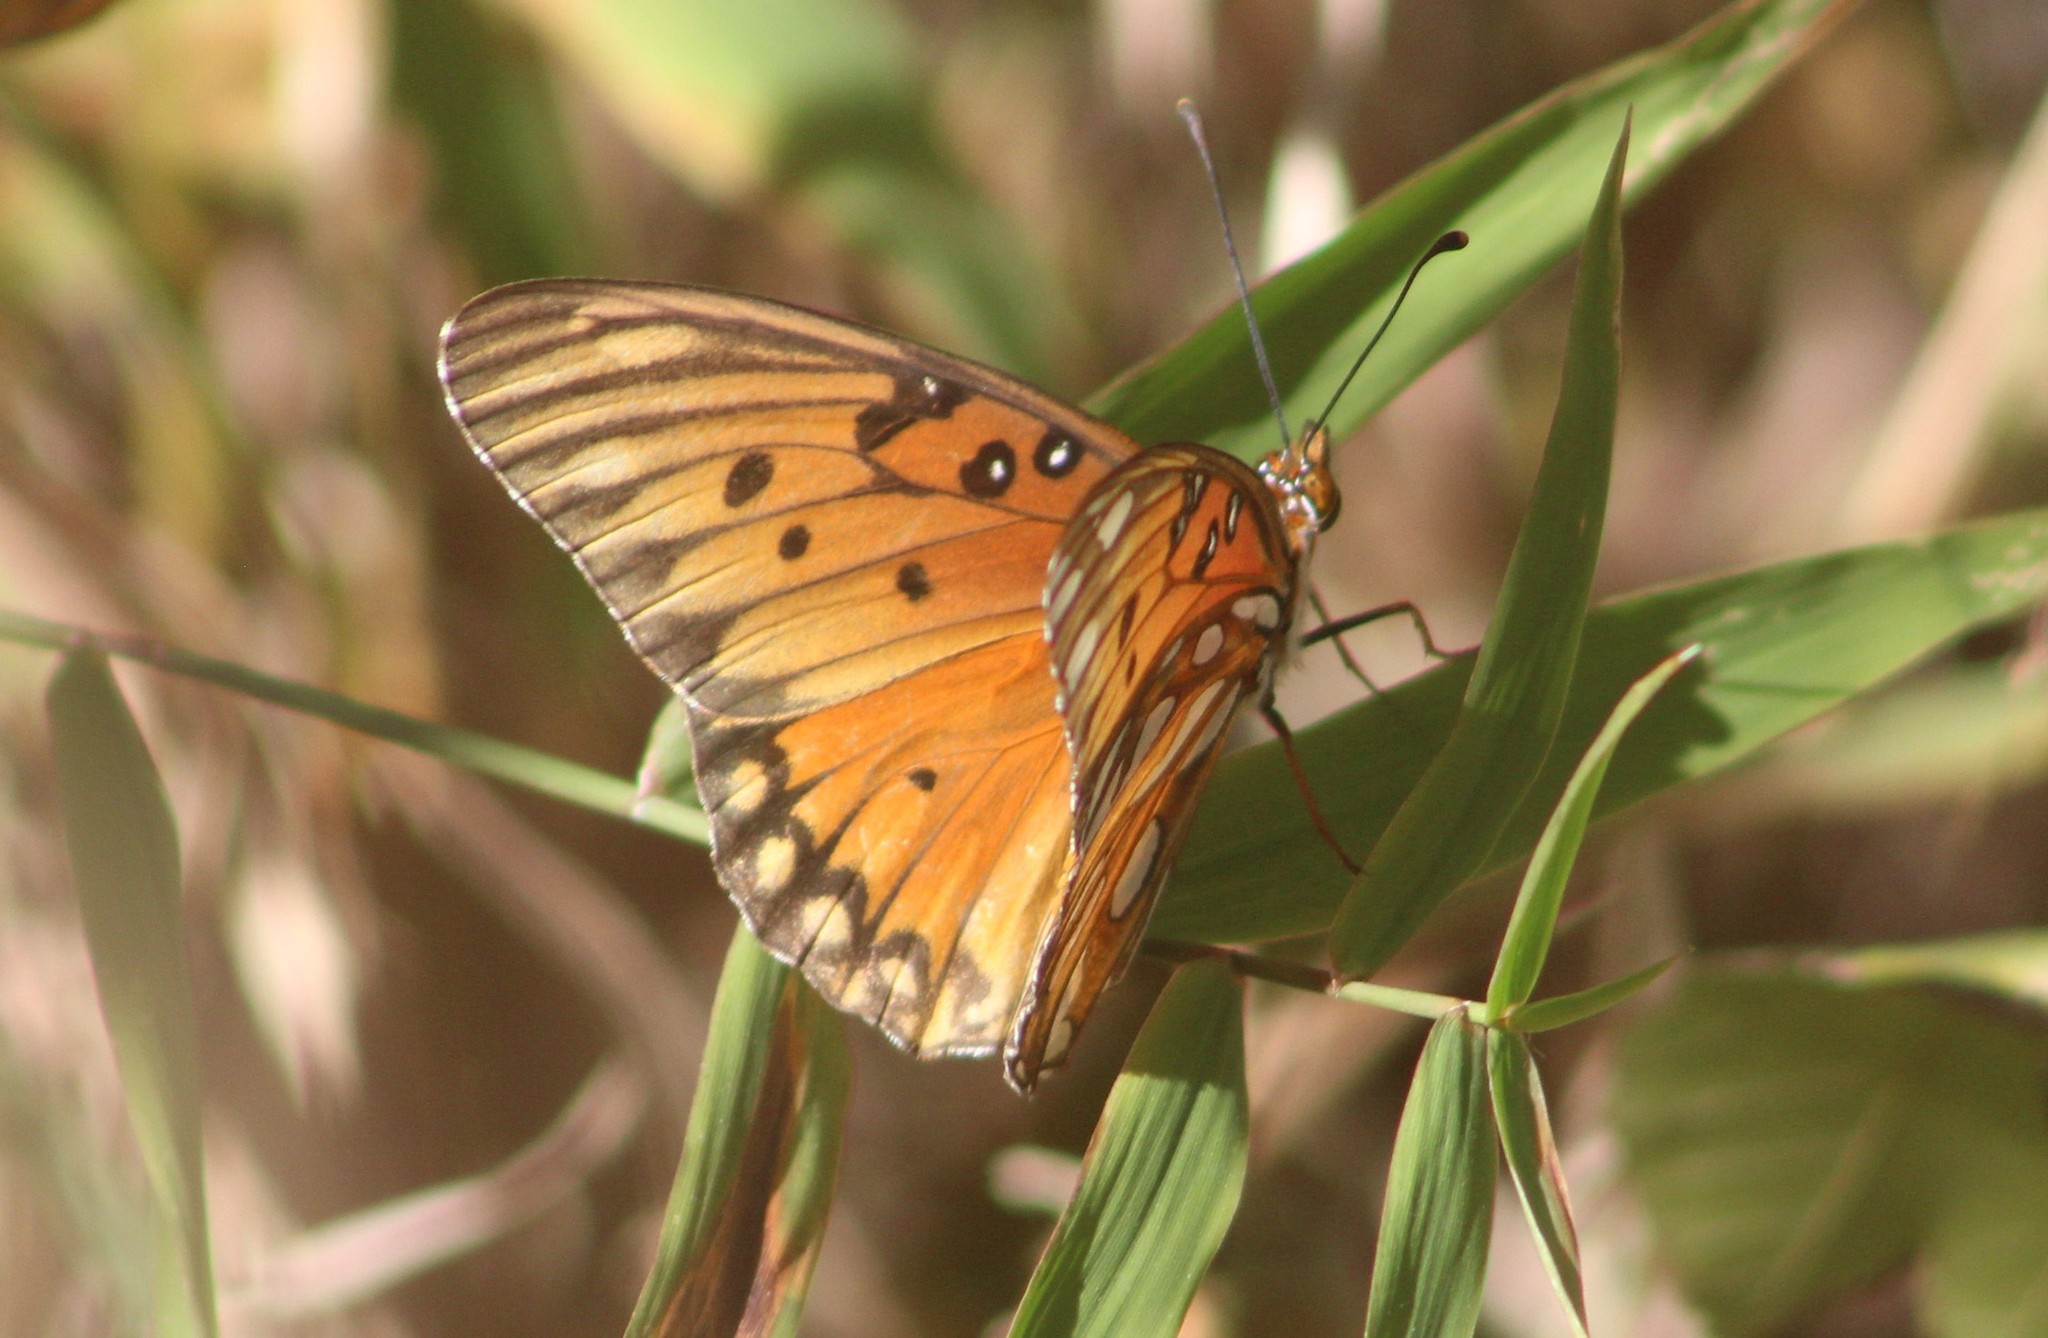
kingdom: Animalia
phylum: Arthropoda
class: Insecta
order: Lepidoptera
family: Nymphalidae
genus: Dione
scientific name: Dione vanillae
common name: Gulf fritillary
